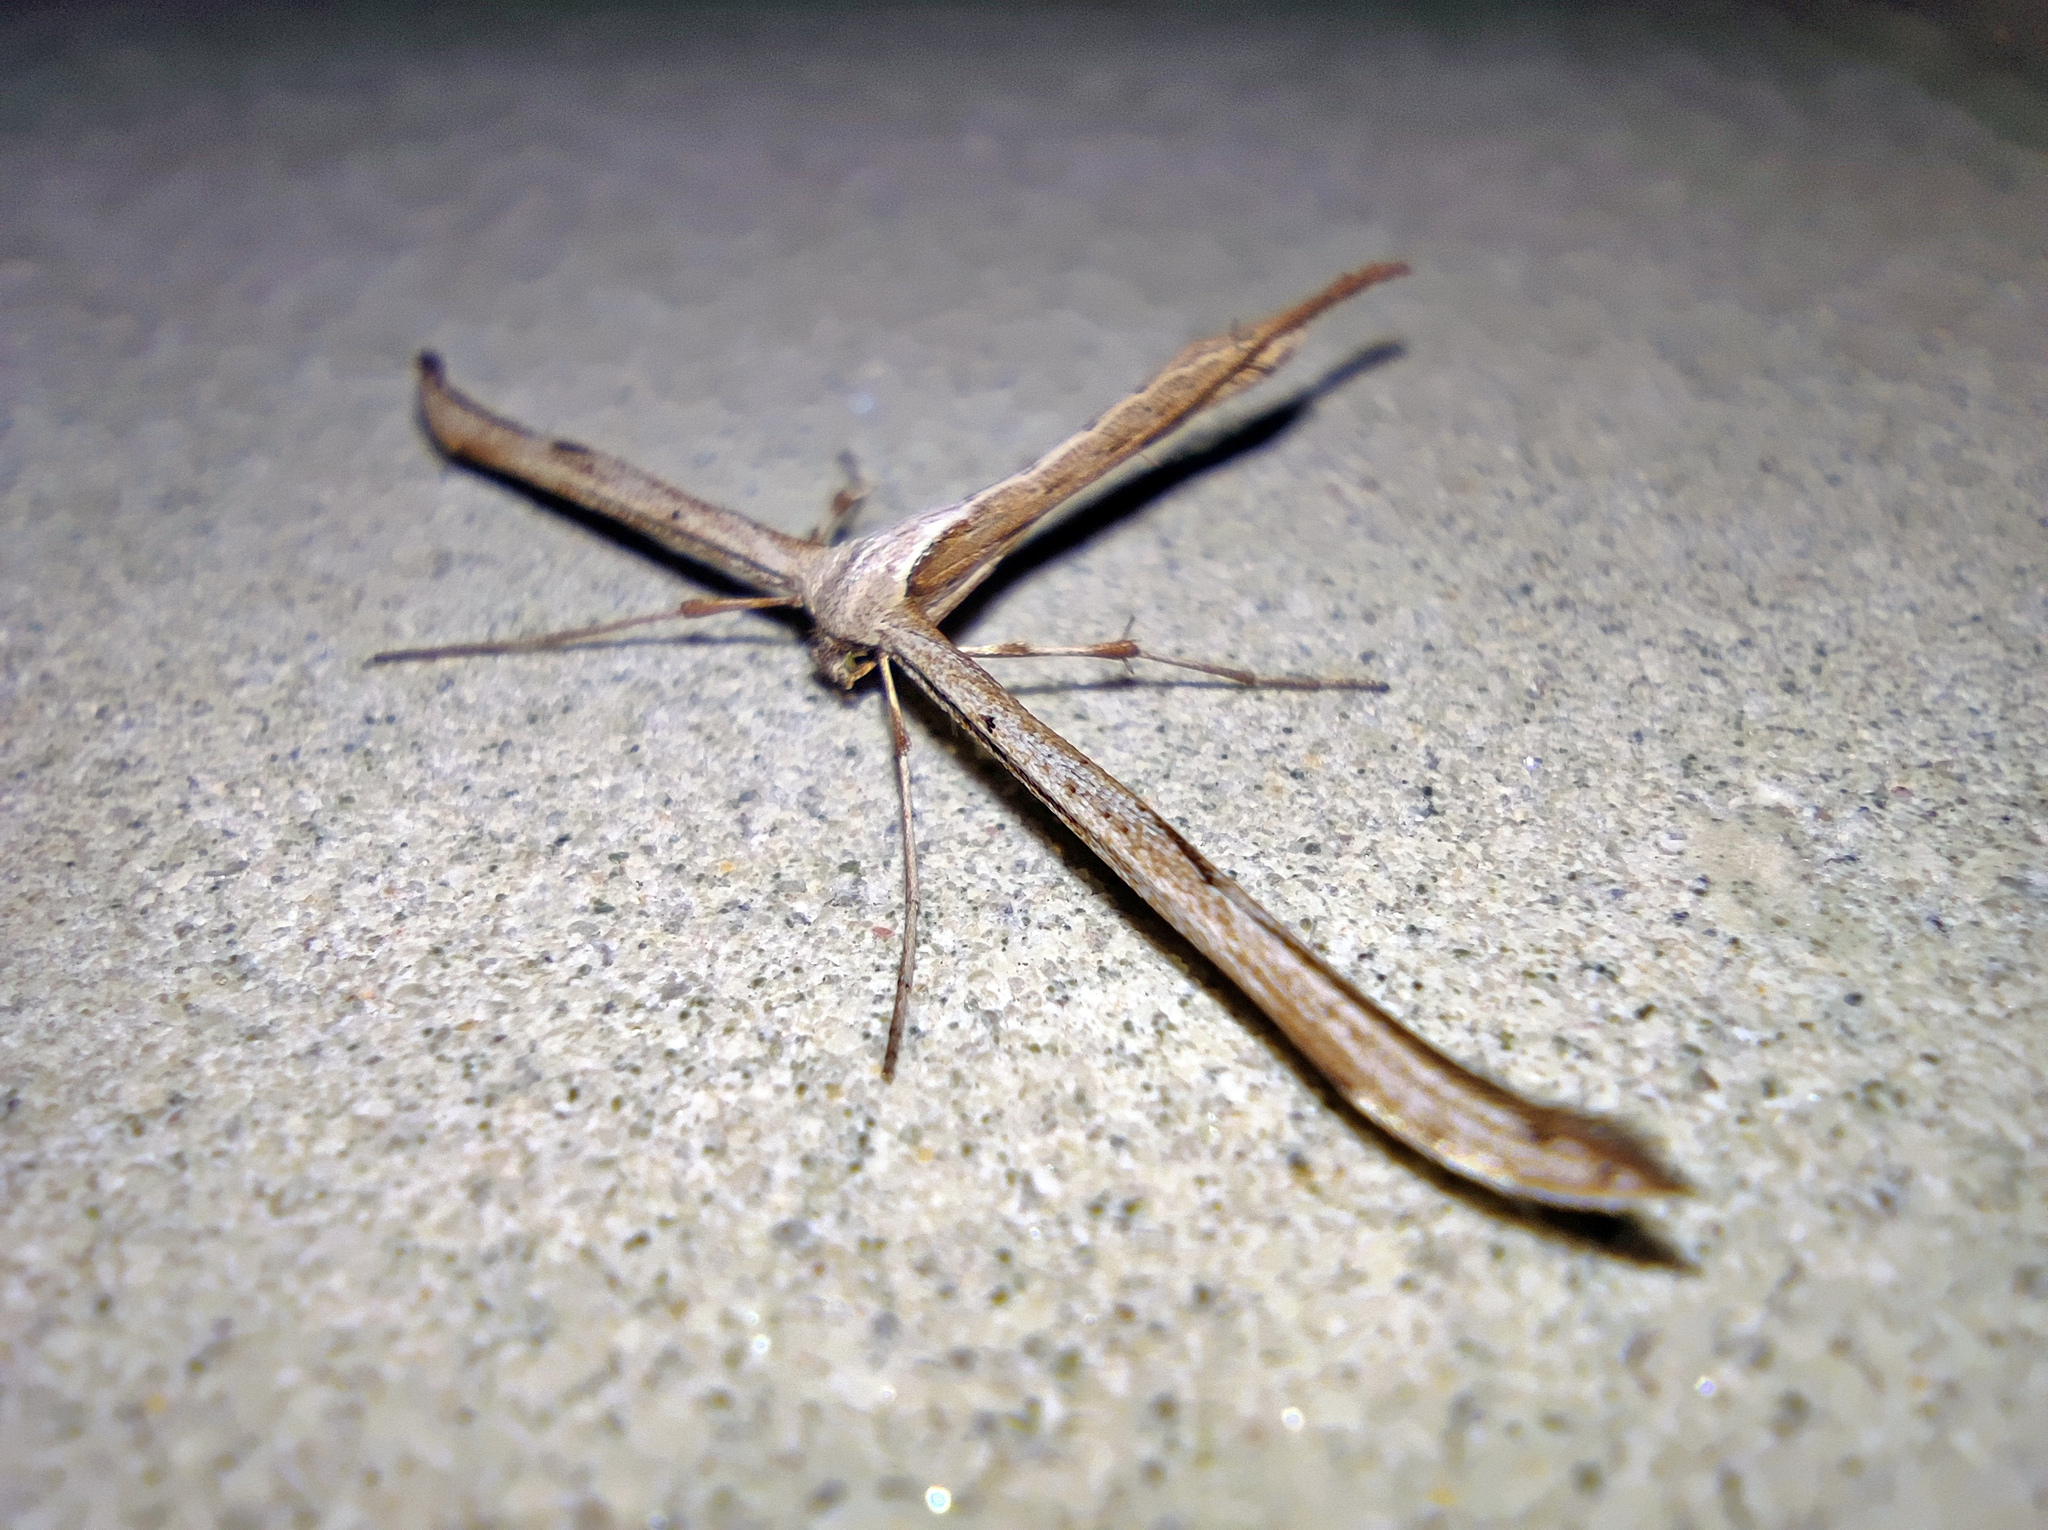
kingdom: Animalia
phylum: Arthropoda
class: Insecta
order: Lepidoptera
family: Pterophoridae
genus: Emmelina
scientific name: Emmelina monodactyla
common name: Common plume
